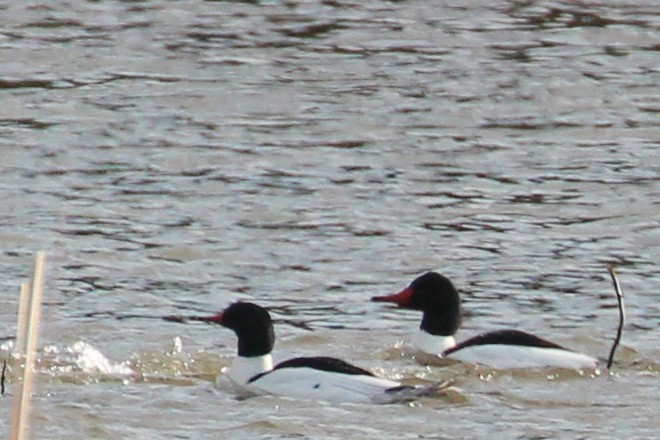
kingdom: Animalia
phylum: Chordata
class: Aves
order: Anseriformes
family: Anatidae
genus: Mergus
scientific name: Mergus merganser
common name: Common merganser
